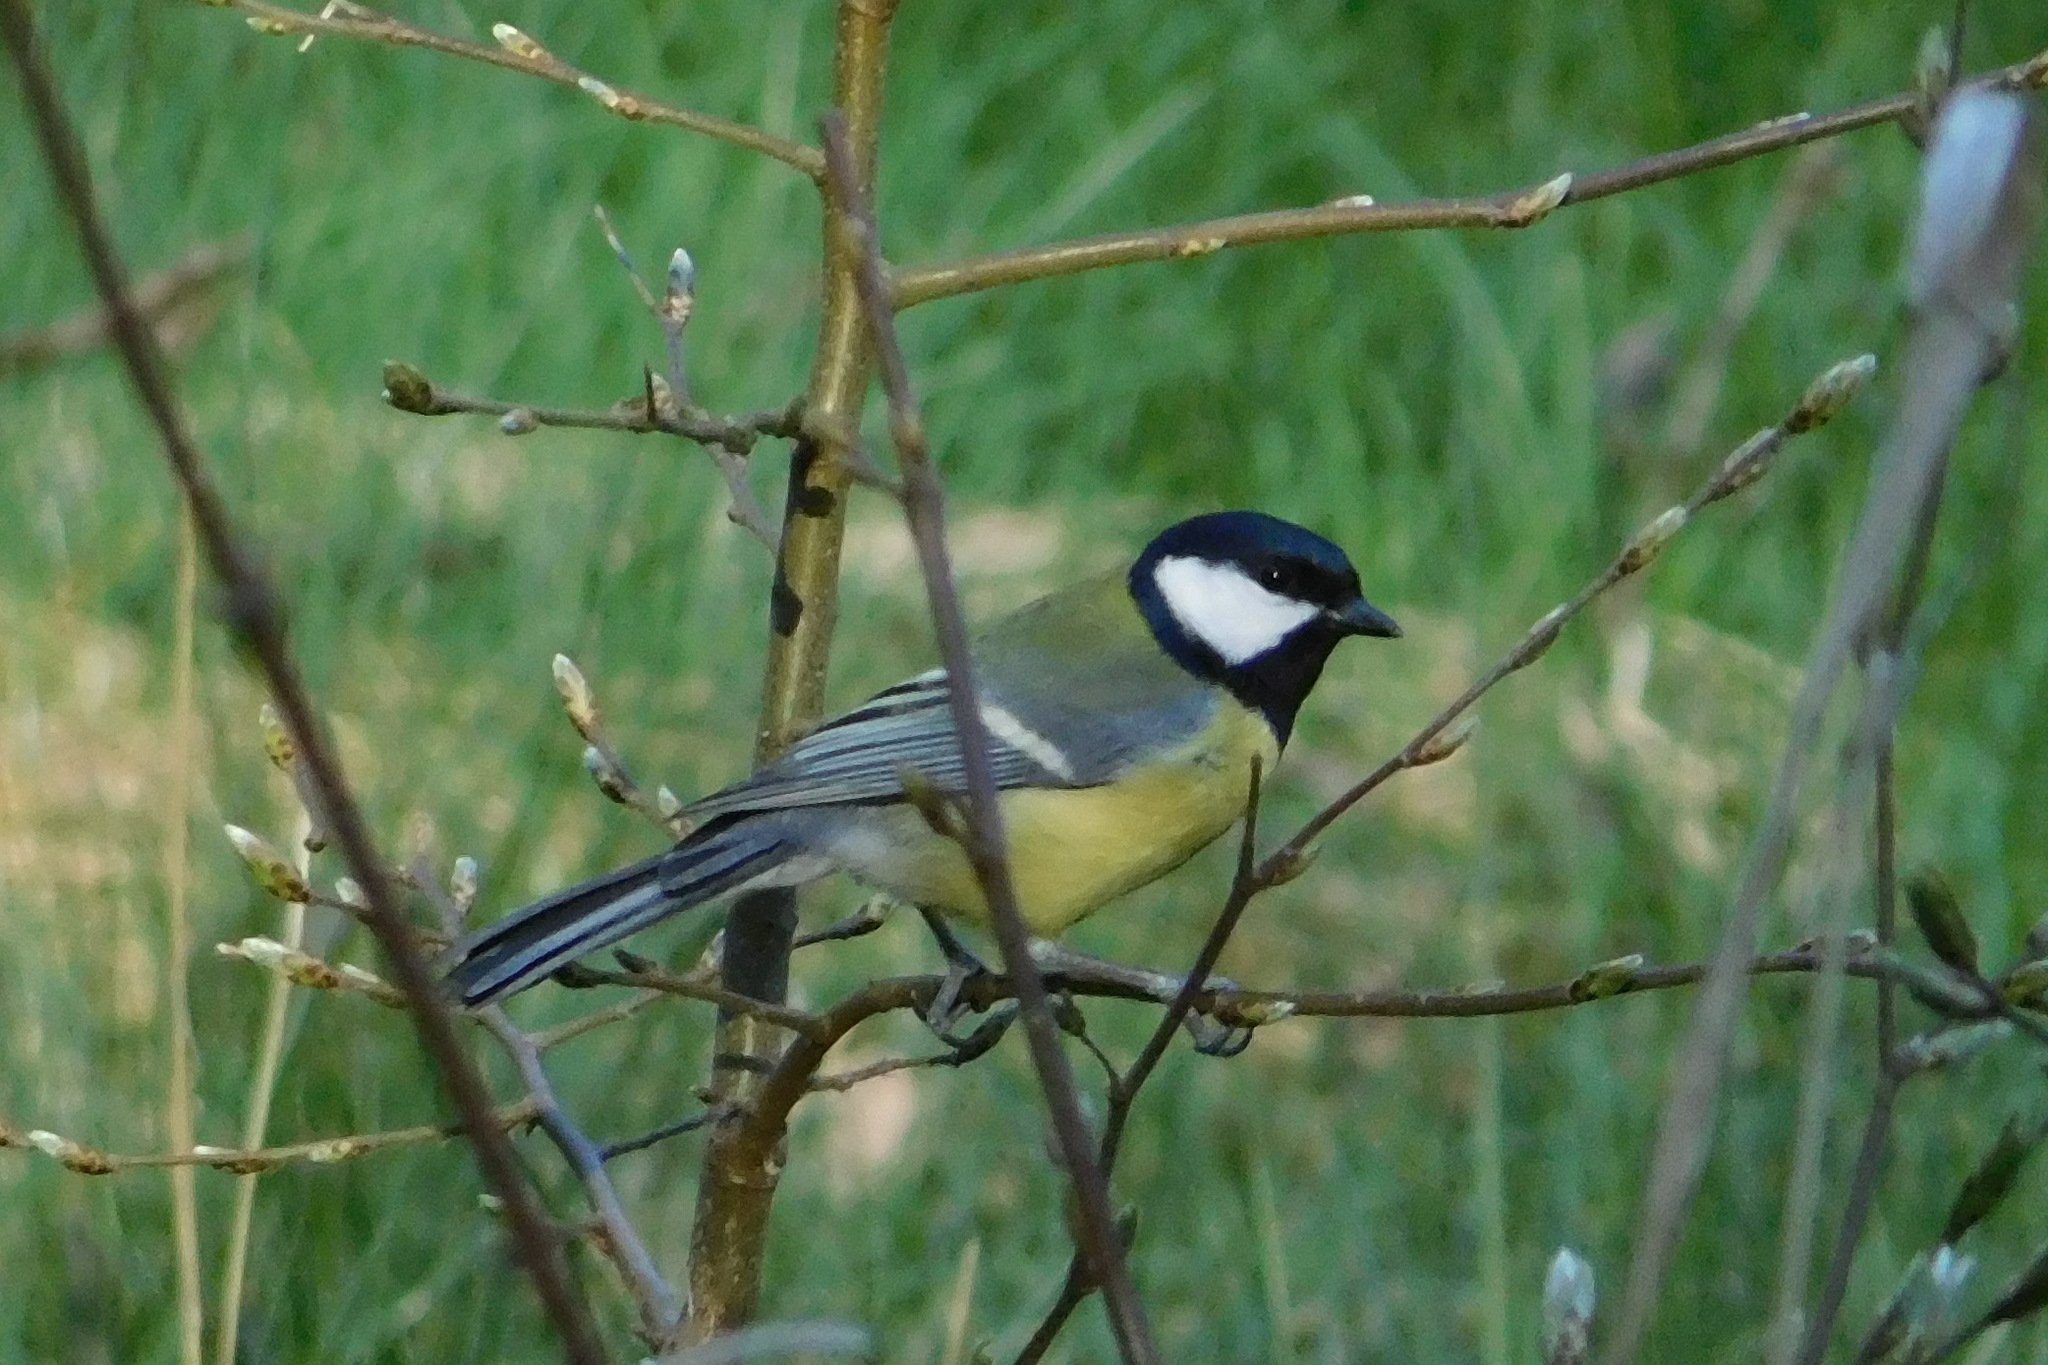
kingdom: Animalia
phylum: Chordata
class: Aves
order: Passeriformes
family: Paridae
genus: Parus
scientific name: Parus major
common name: Great tit
